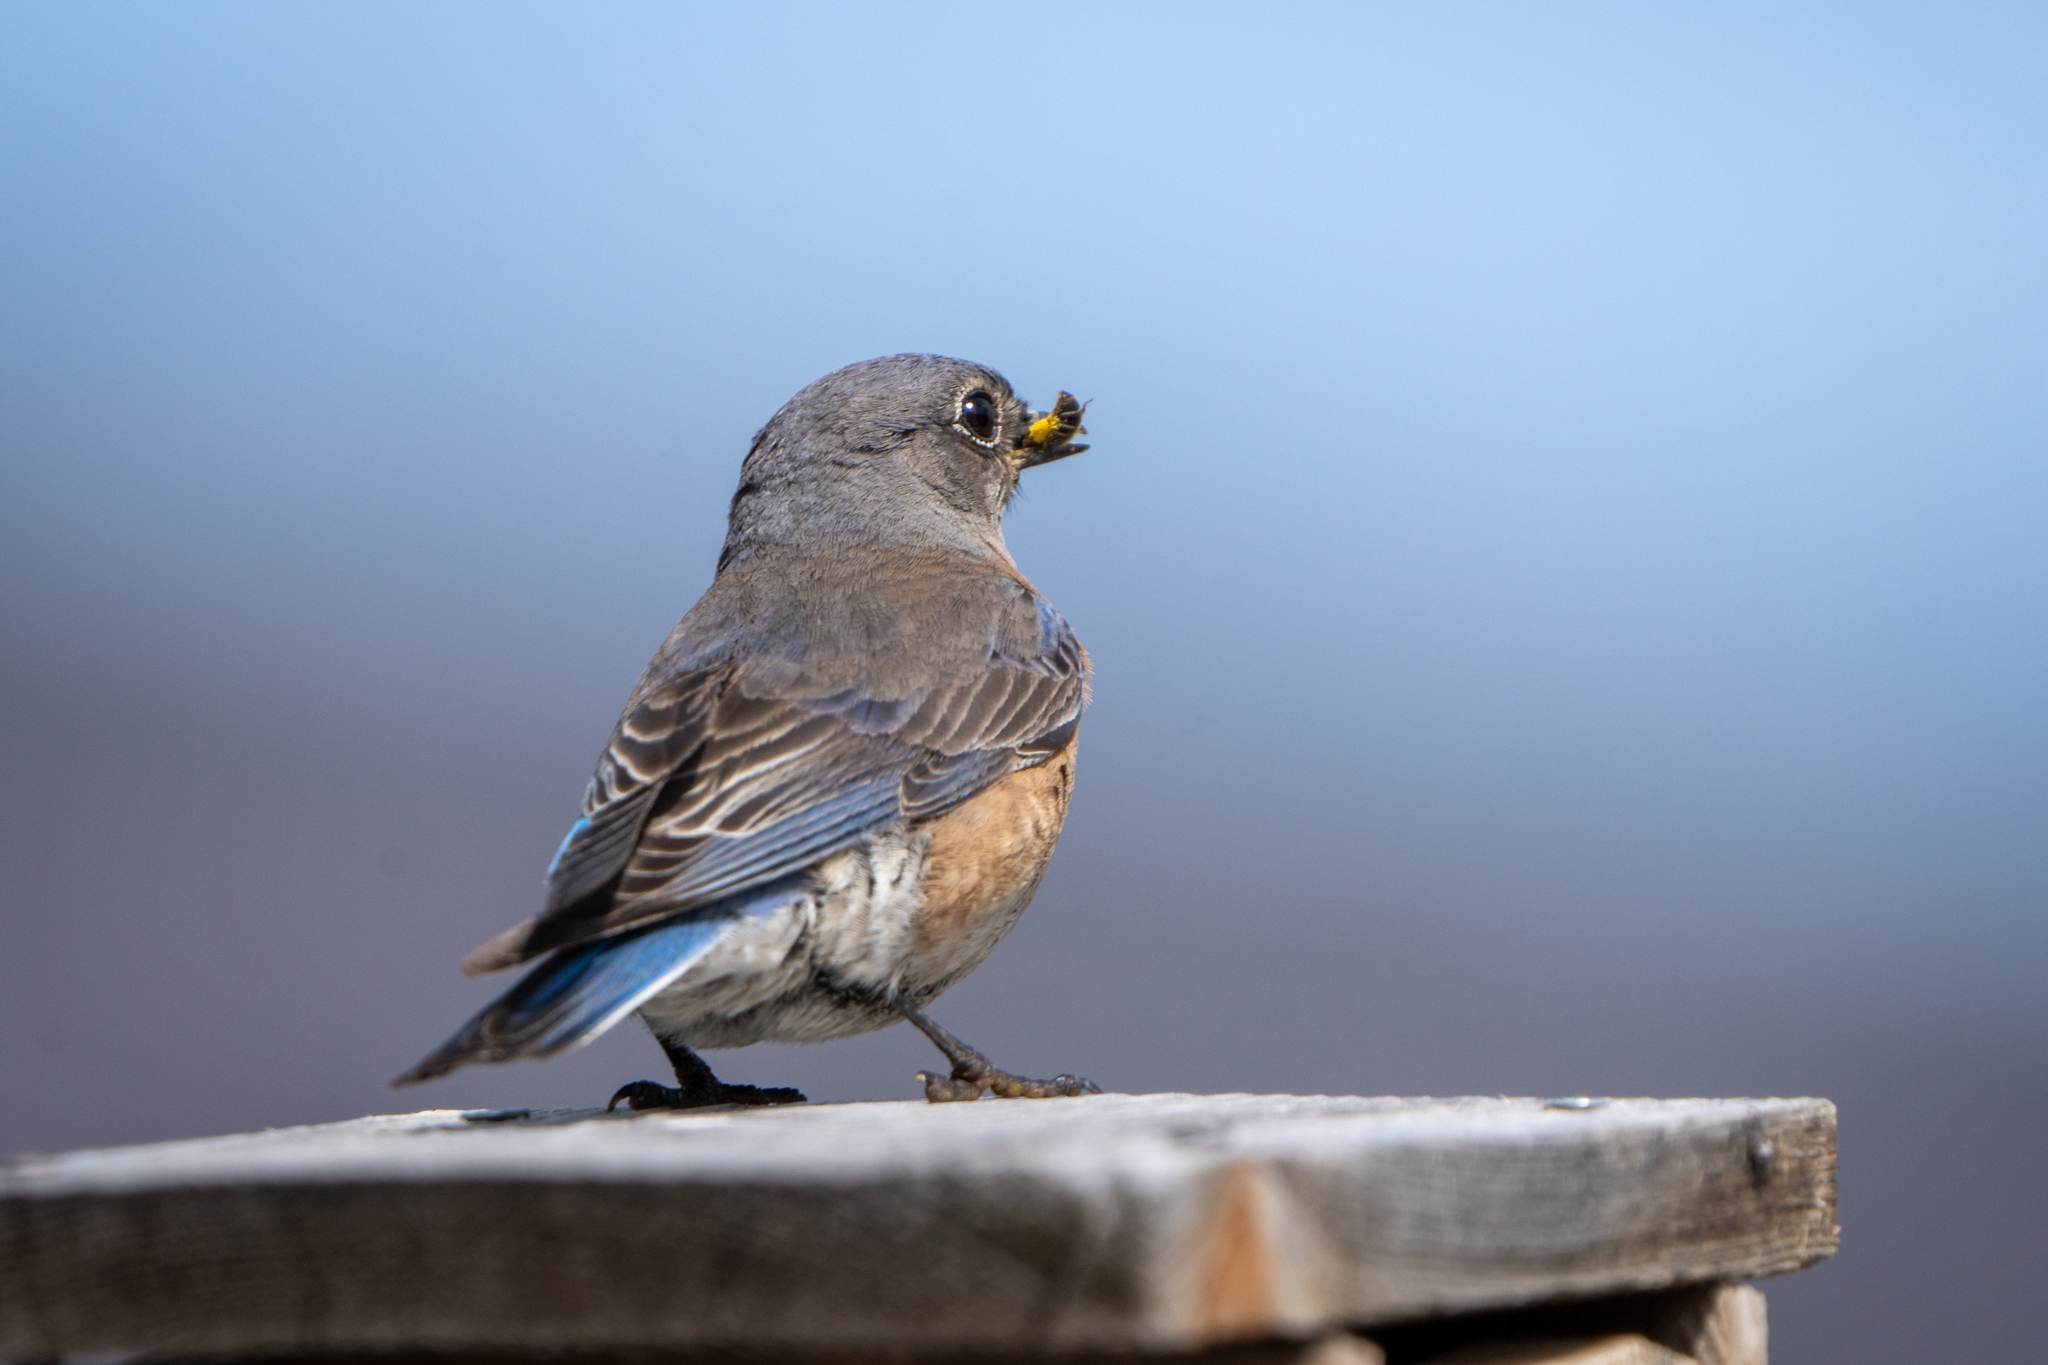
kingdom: Animalia
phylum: Chordata
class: Aves
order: Passeriformes
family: Turdidae
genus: Sialia
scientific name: Sialia mexicana
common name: Western bluebird
